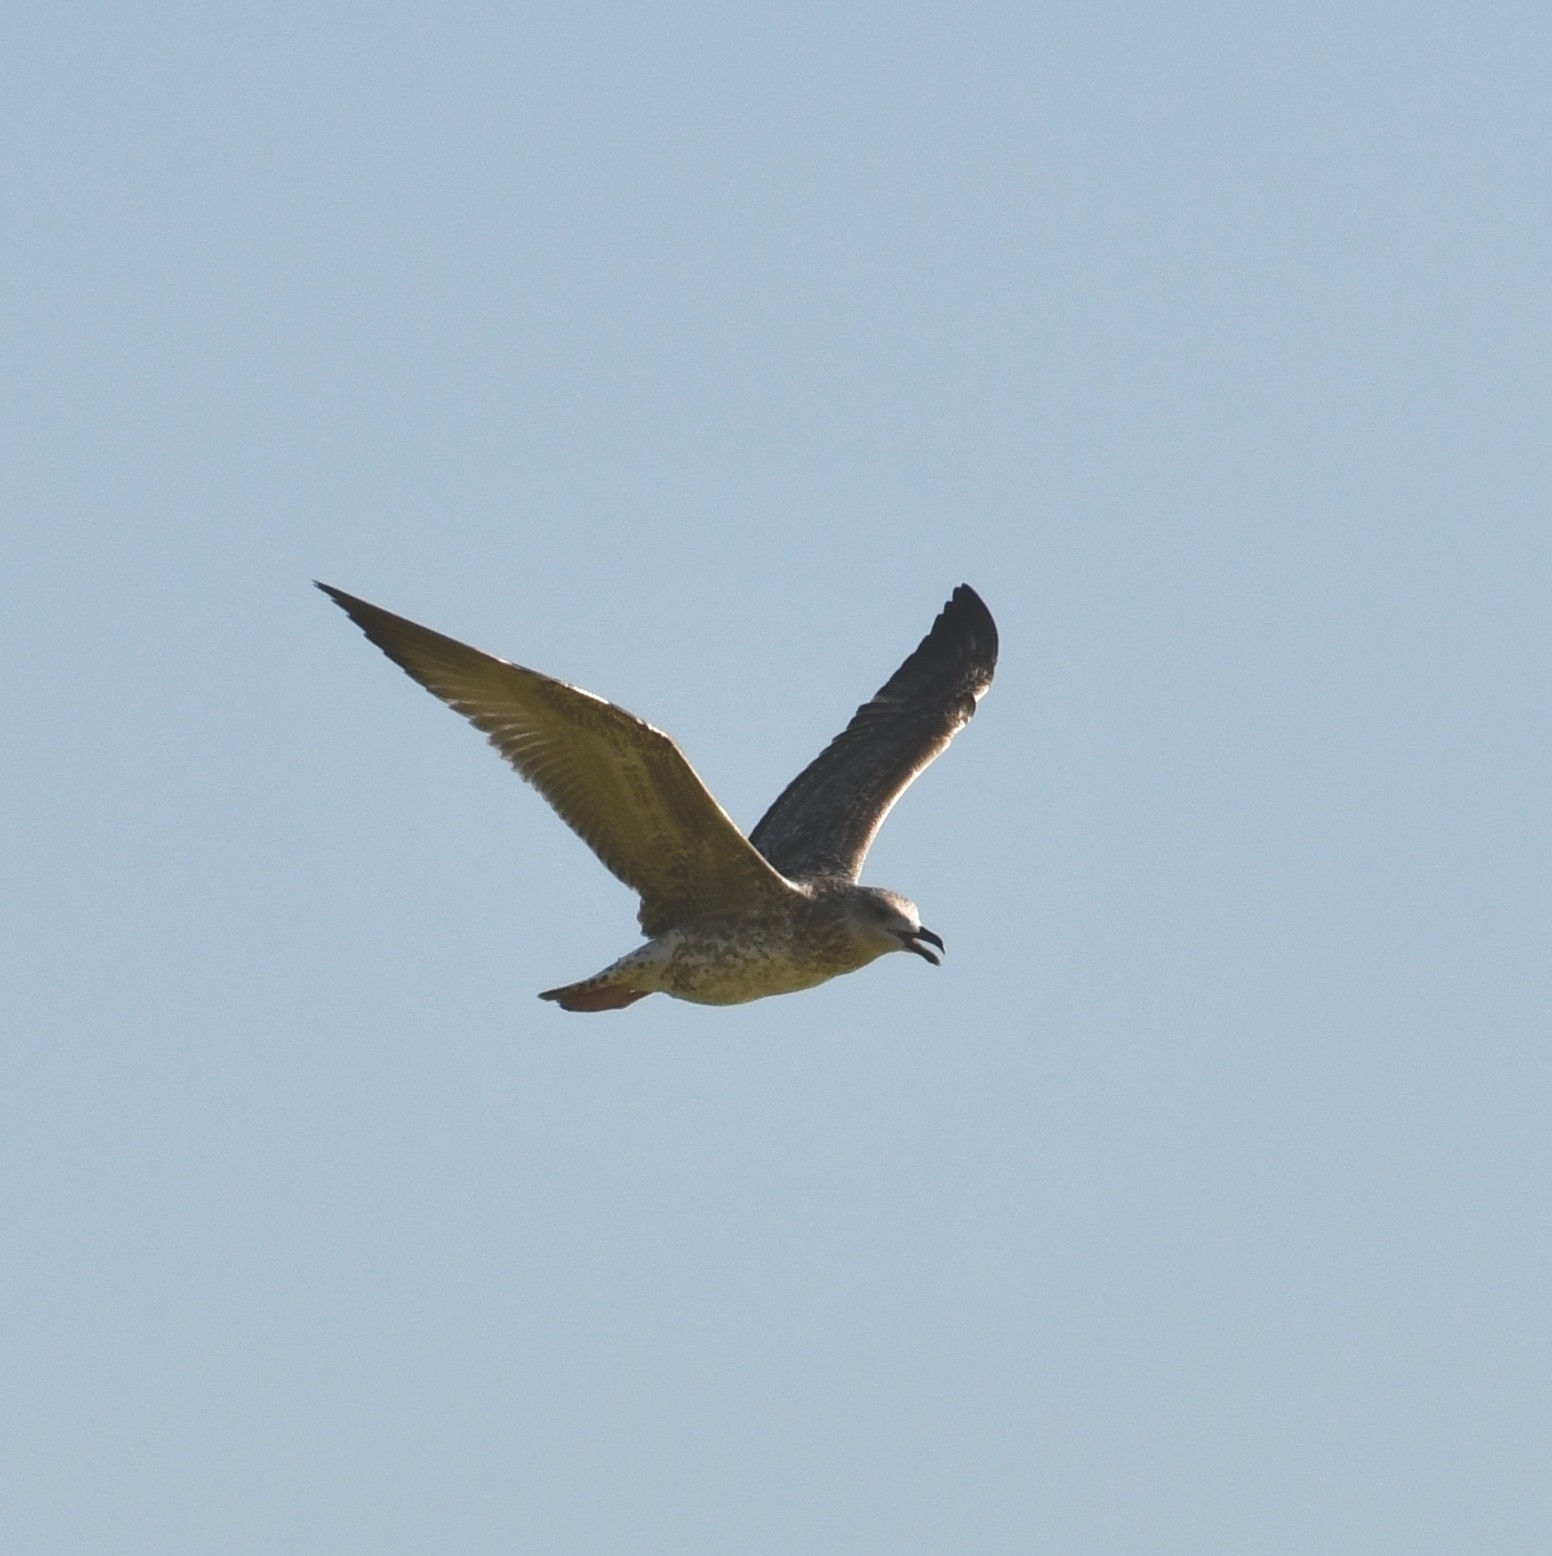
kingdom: Animalia
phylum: Chordata
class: Aves
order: Charadriiformes
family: Laridae
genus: Larus
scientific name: Larus fuscus
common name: Lesser black-backed gull
